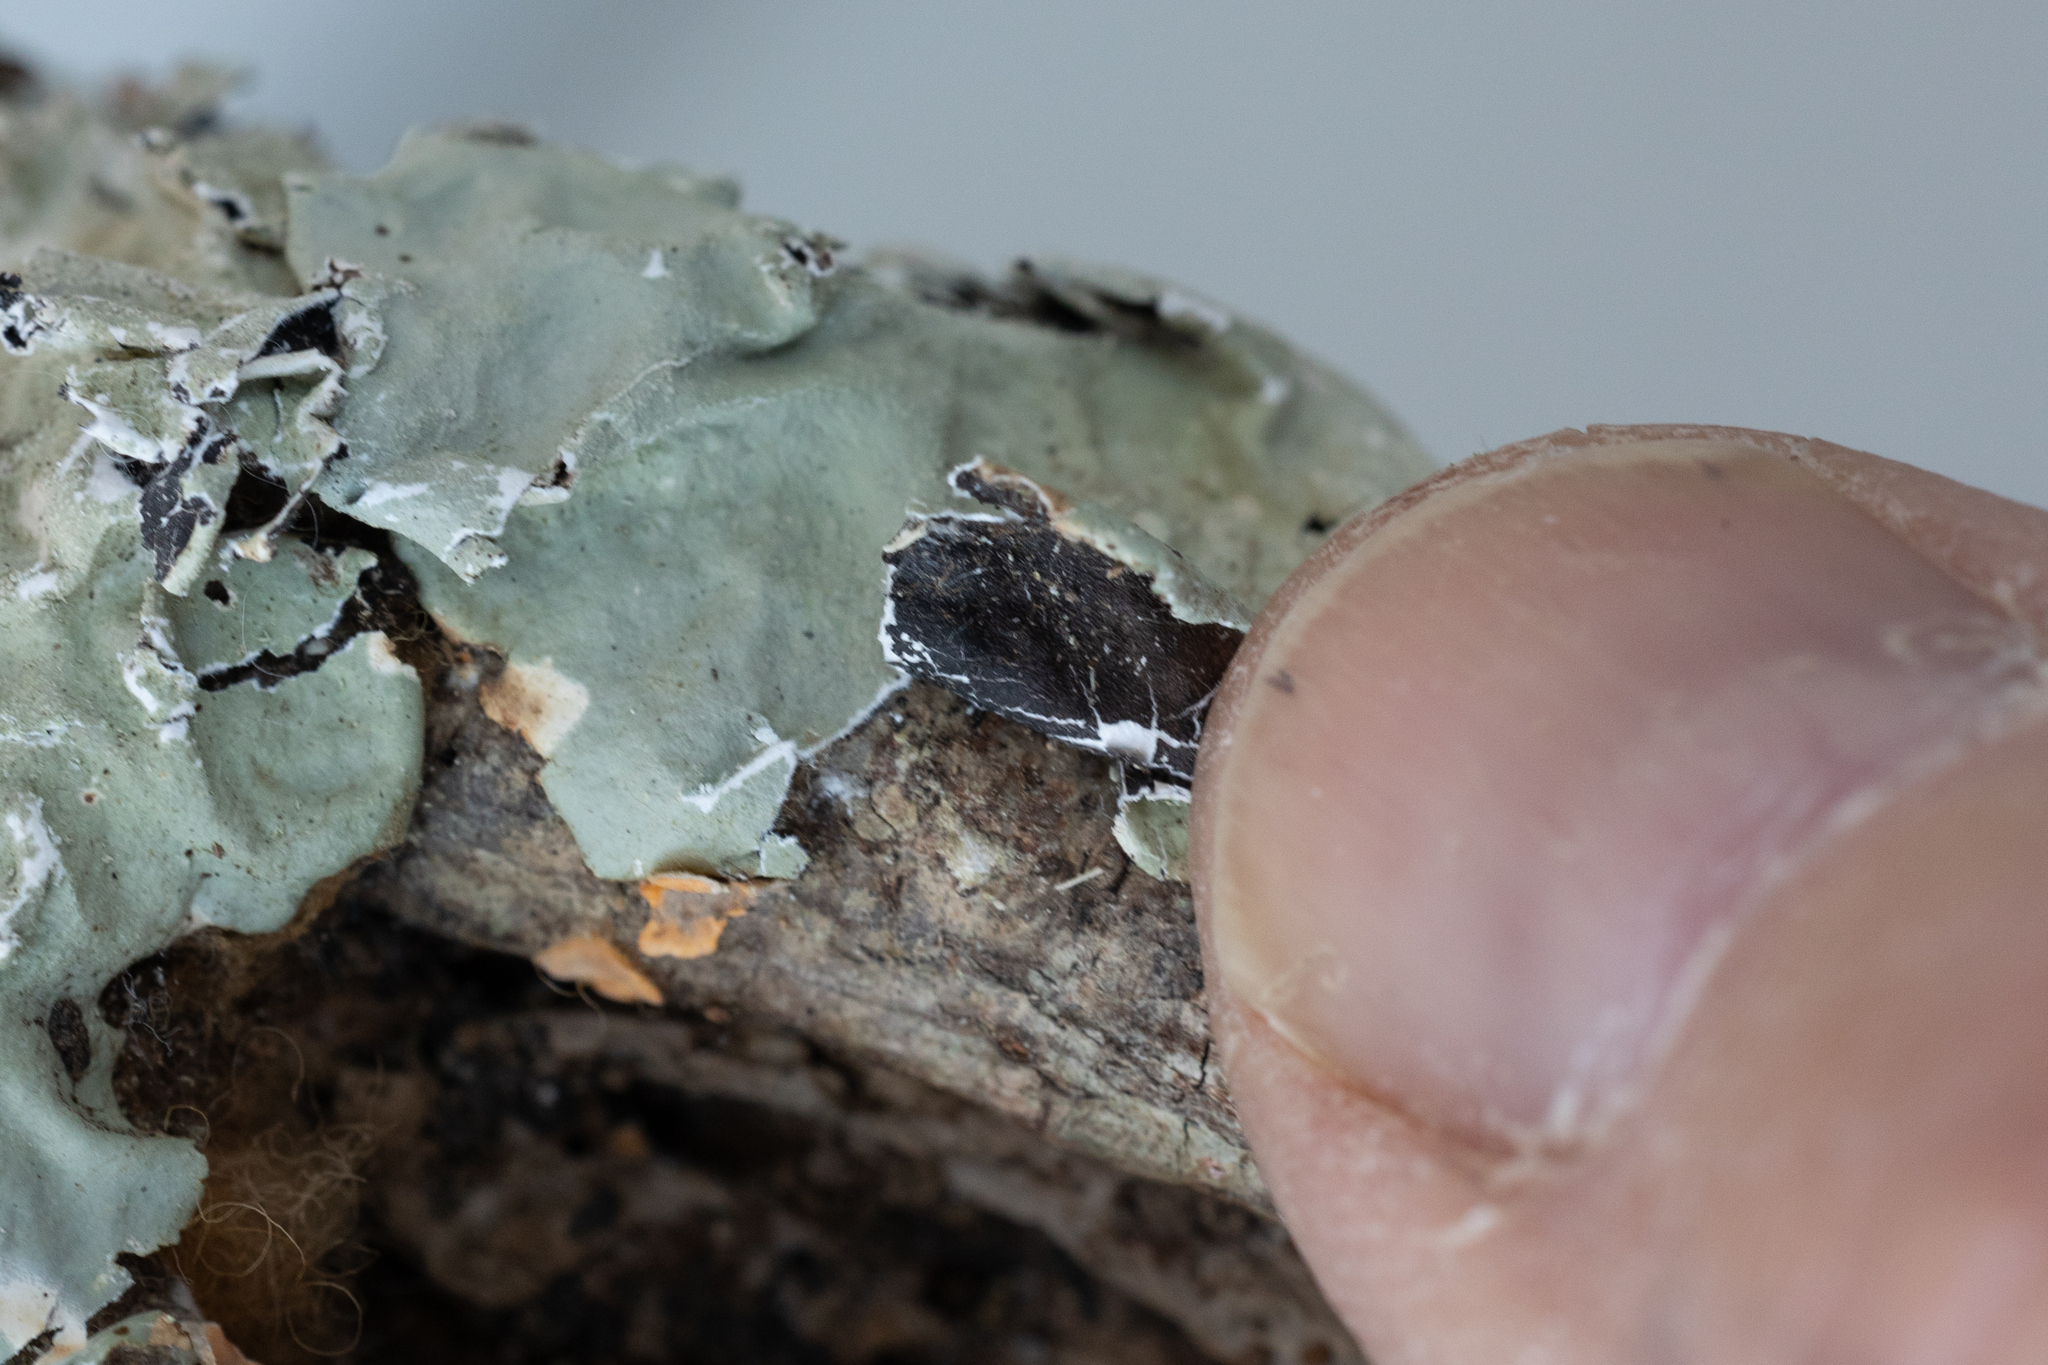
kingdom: Fungi
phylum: Ascomycota
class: Lecanoromycetes
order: Lecanorales
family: Parmeliaceae
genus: Parmotrema
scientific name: Parmotrema tinctorum
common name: Old gray ruffles
